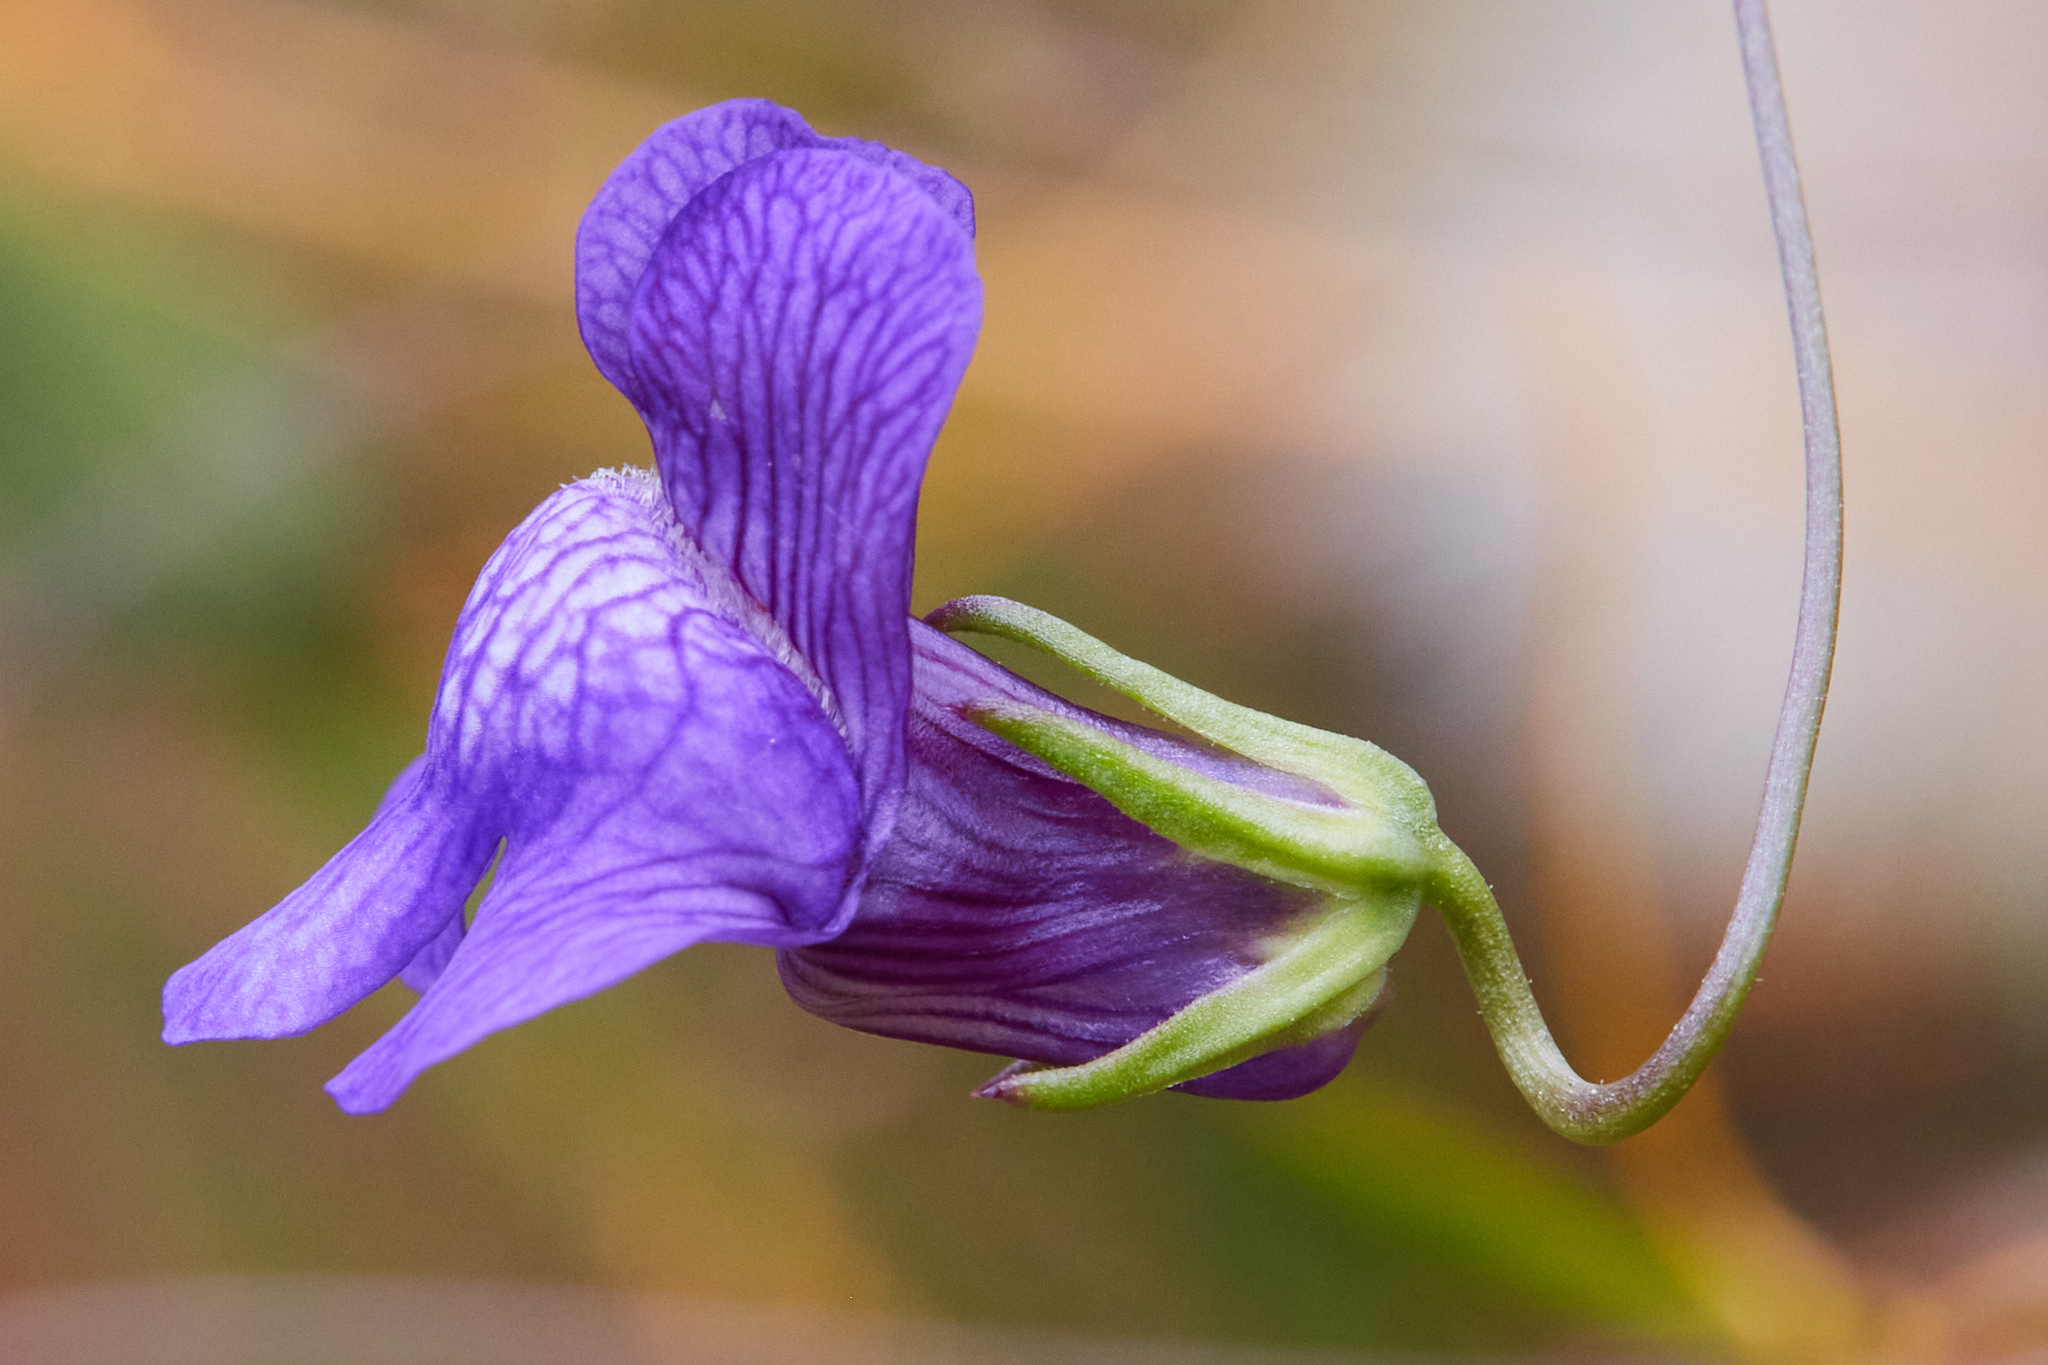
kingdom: Plantae
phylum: Tracheophyta
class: Magnoliopsida
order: Lamiales
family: Plantaginaceae
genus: Neogaerrhinum
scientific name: Neogaerrhinum strictum
